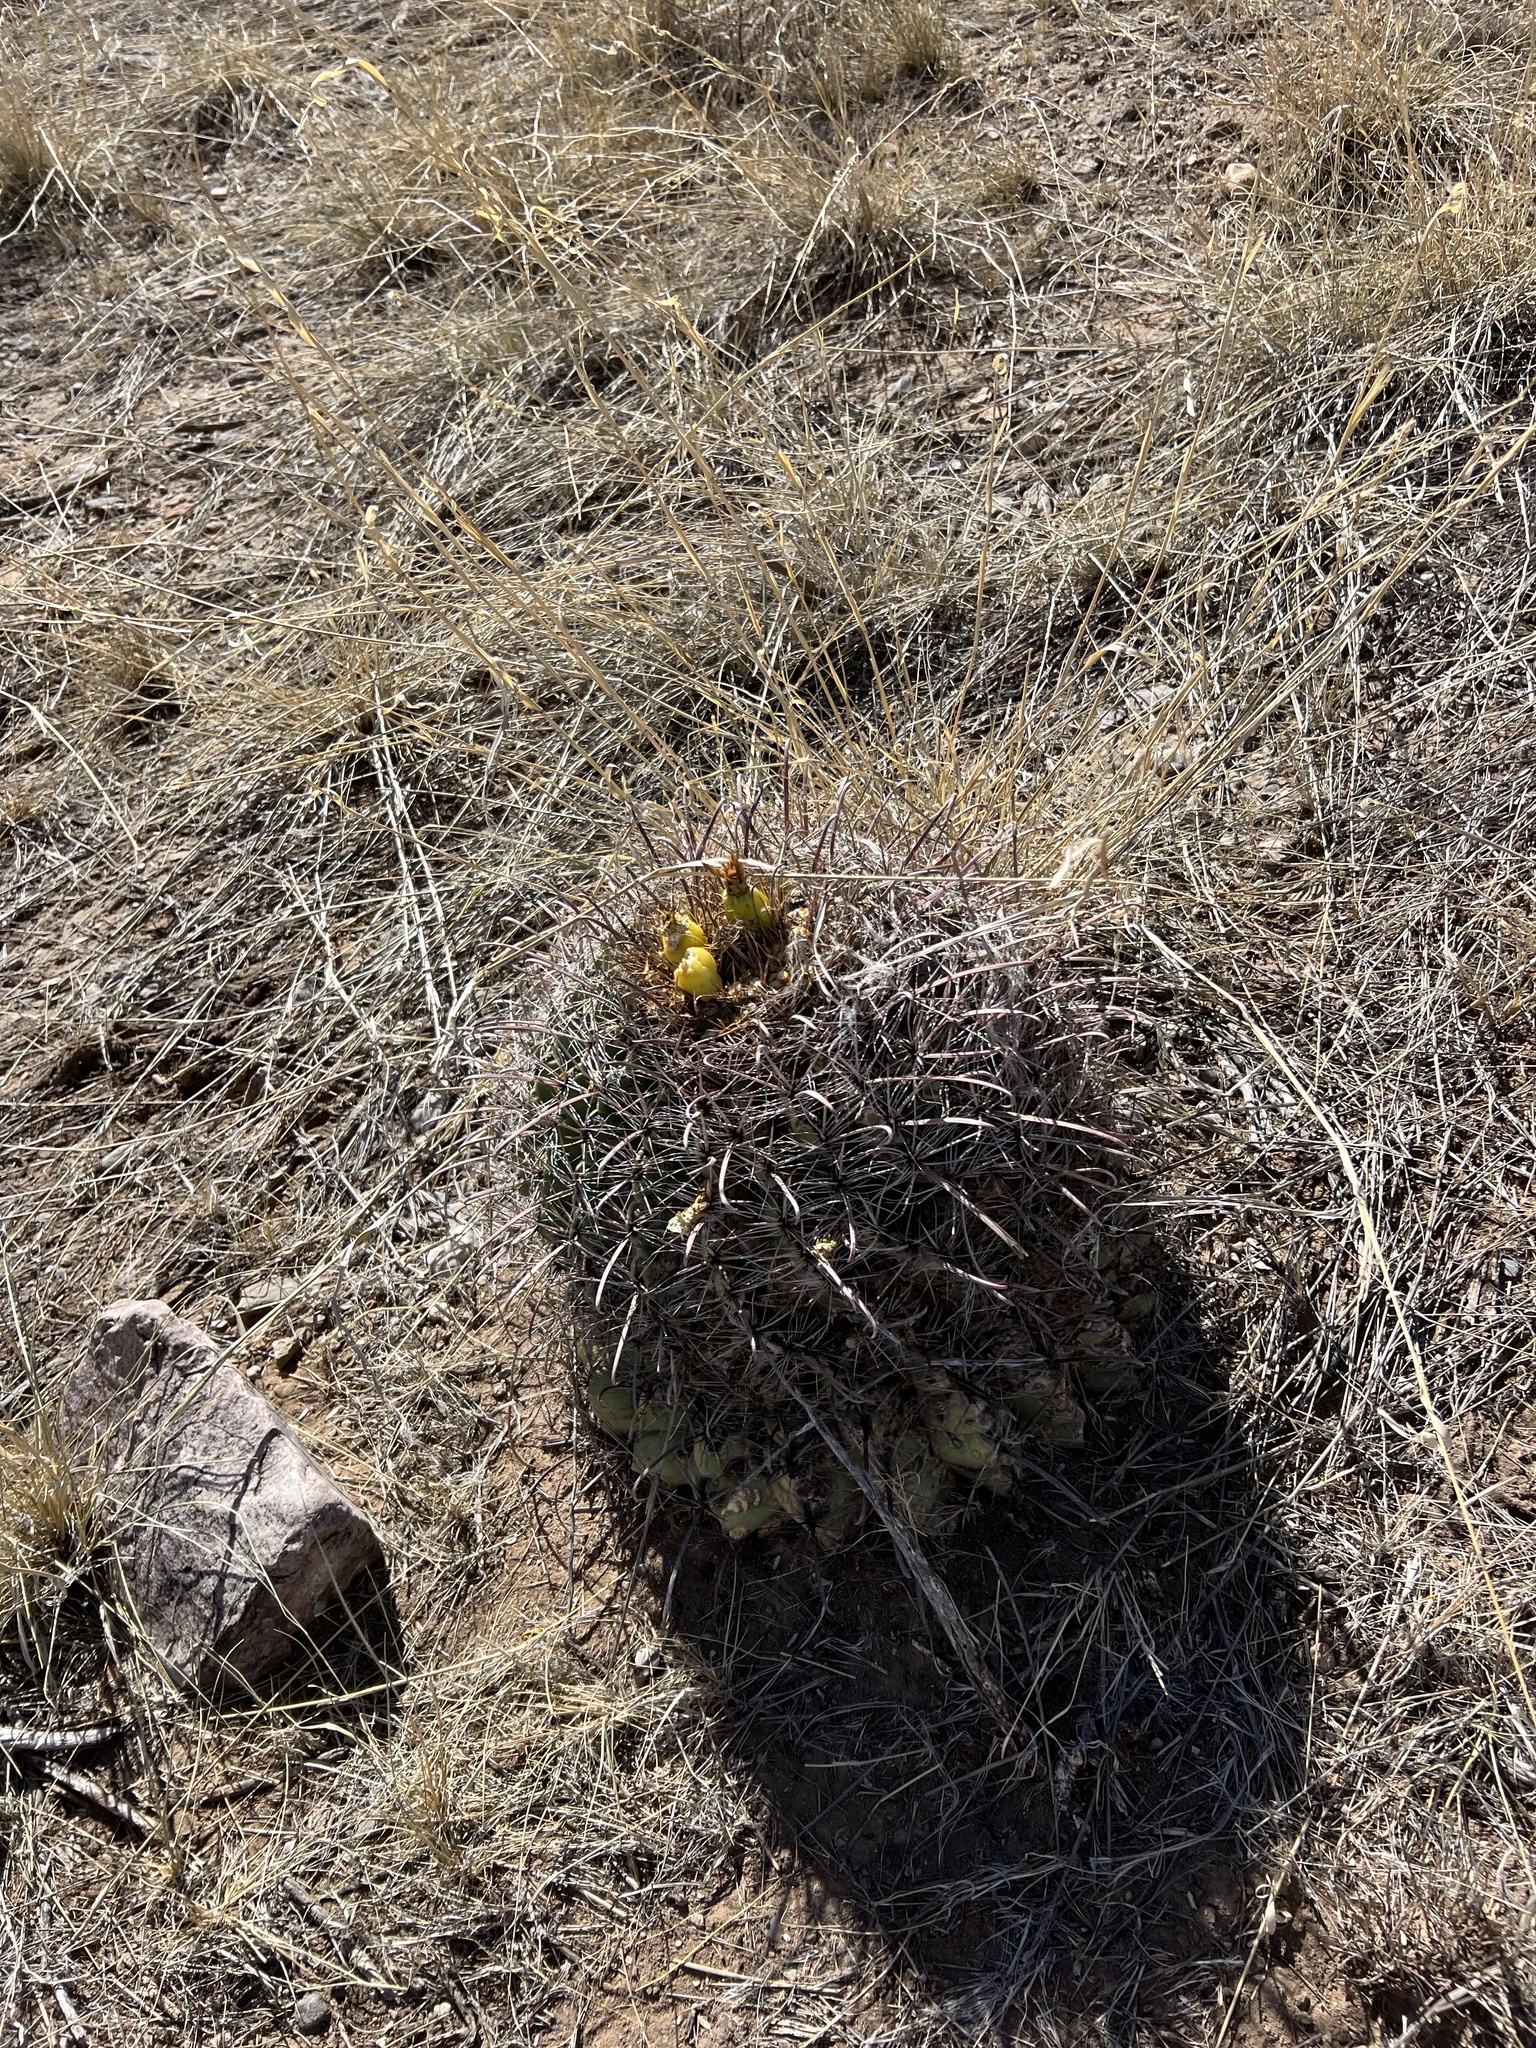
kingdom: Plantae
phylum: Tracheophyta
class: Magnoliopsida
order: Caryophyllales
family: Cactaceae
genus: Ferocactus
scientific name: Ferocactus wislizeni
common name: Candy barrel cactus
